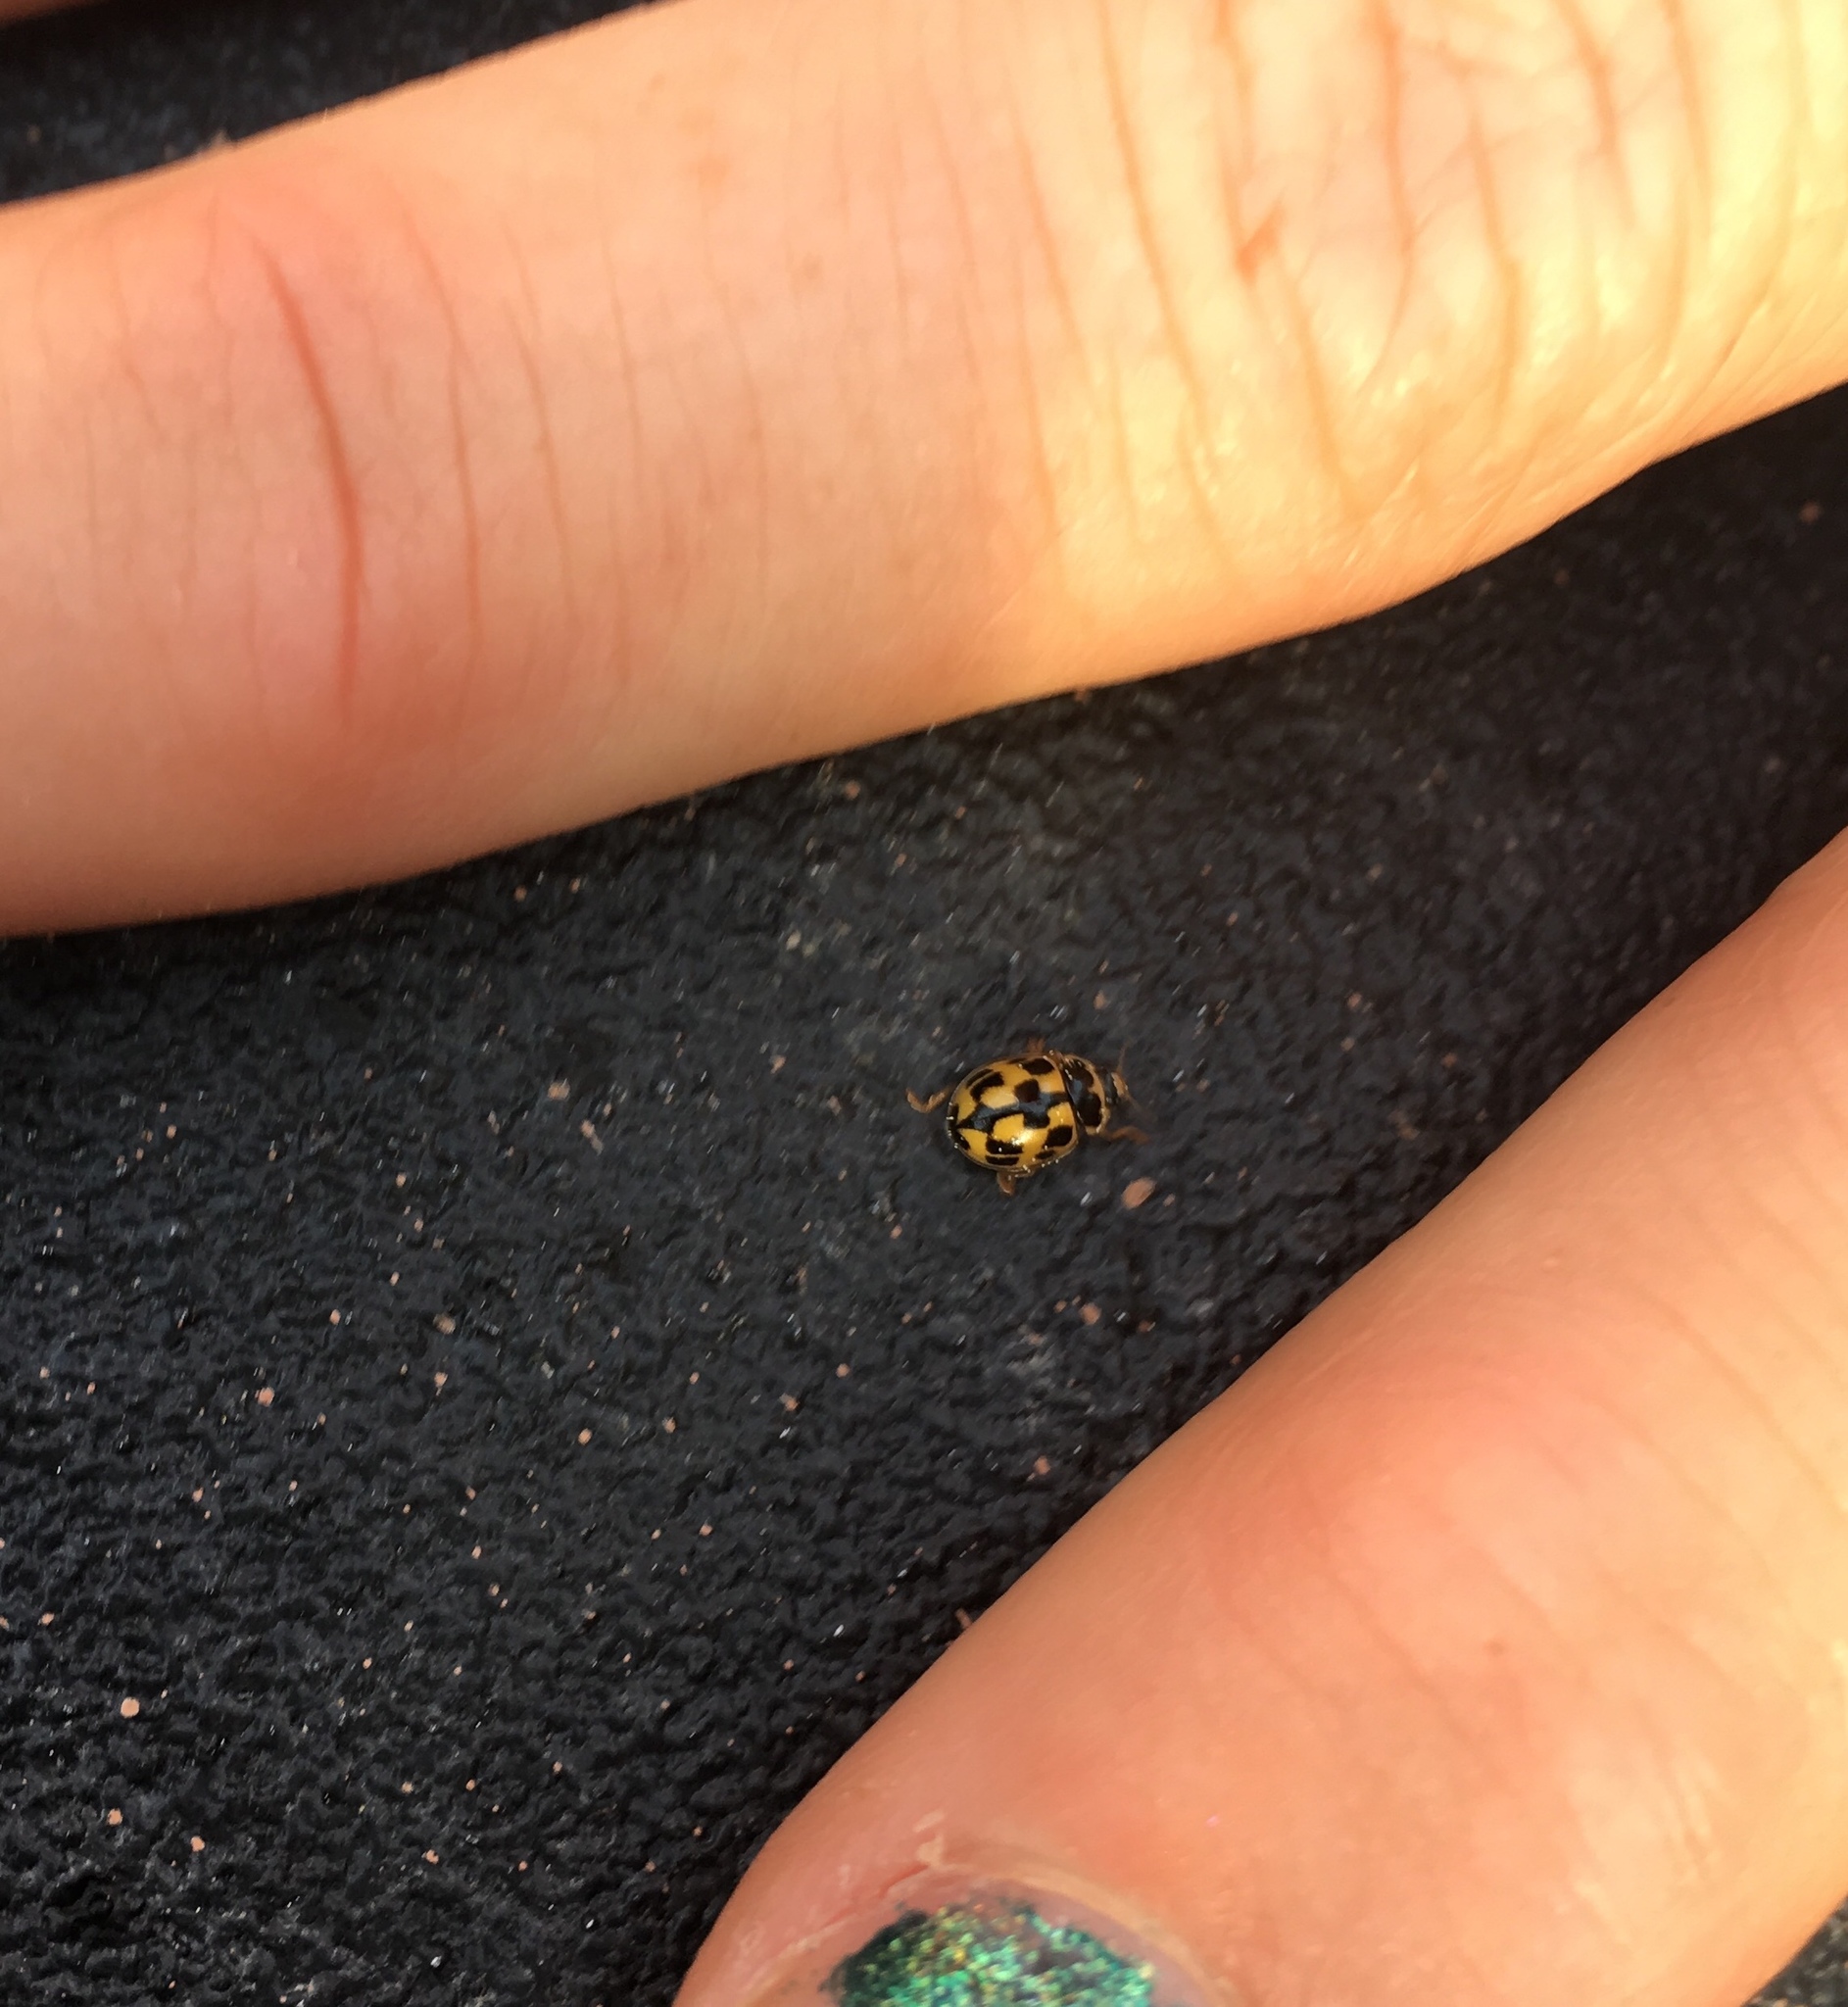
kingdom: Animalia
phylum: Arthropoda
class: Insecta
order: Coleoptera
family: Coccinellidae
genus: Propylaea
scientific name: Propylaea quatuordecimpunctata
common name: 14-spotted ladybird beetle
